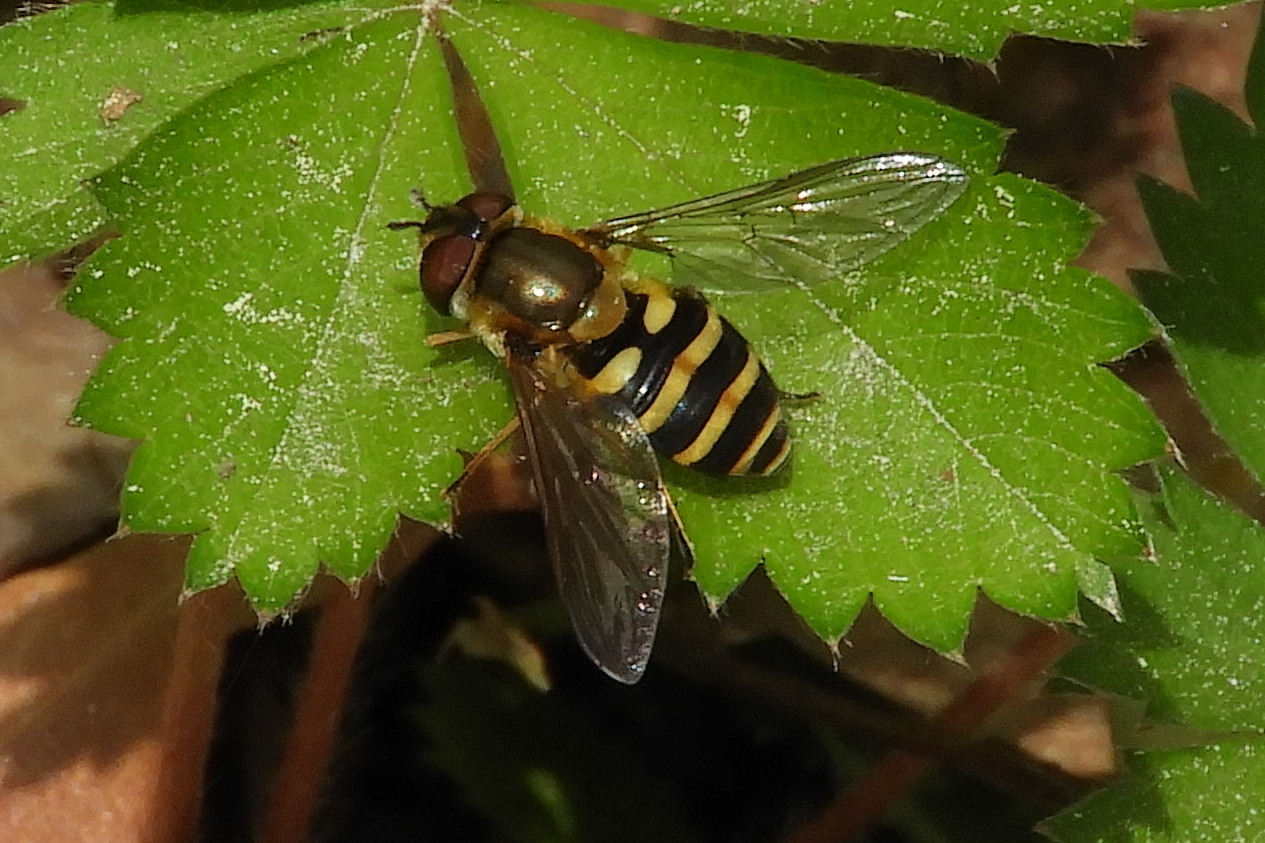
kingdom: Animalia
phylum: Arthropoda
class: Insecta
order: Diptera
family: Syrphidae
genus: Syrphus
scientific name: Syrphus
